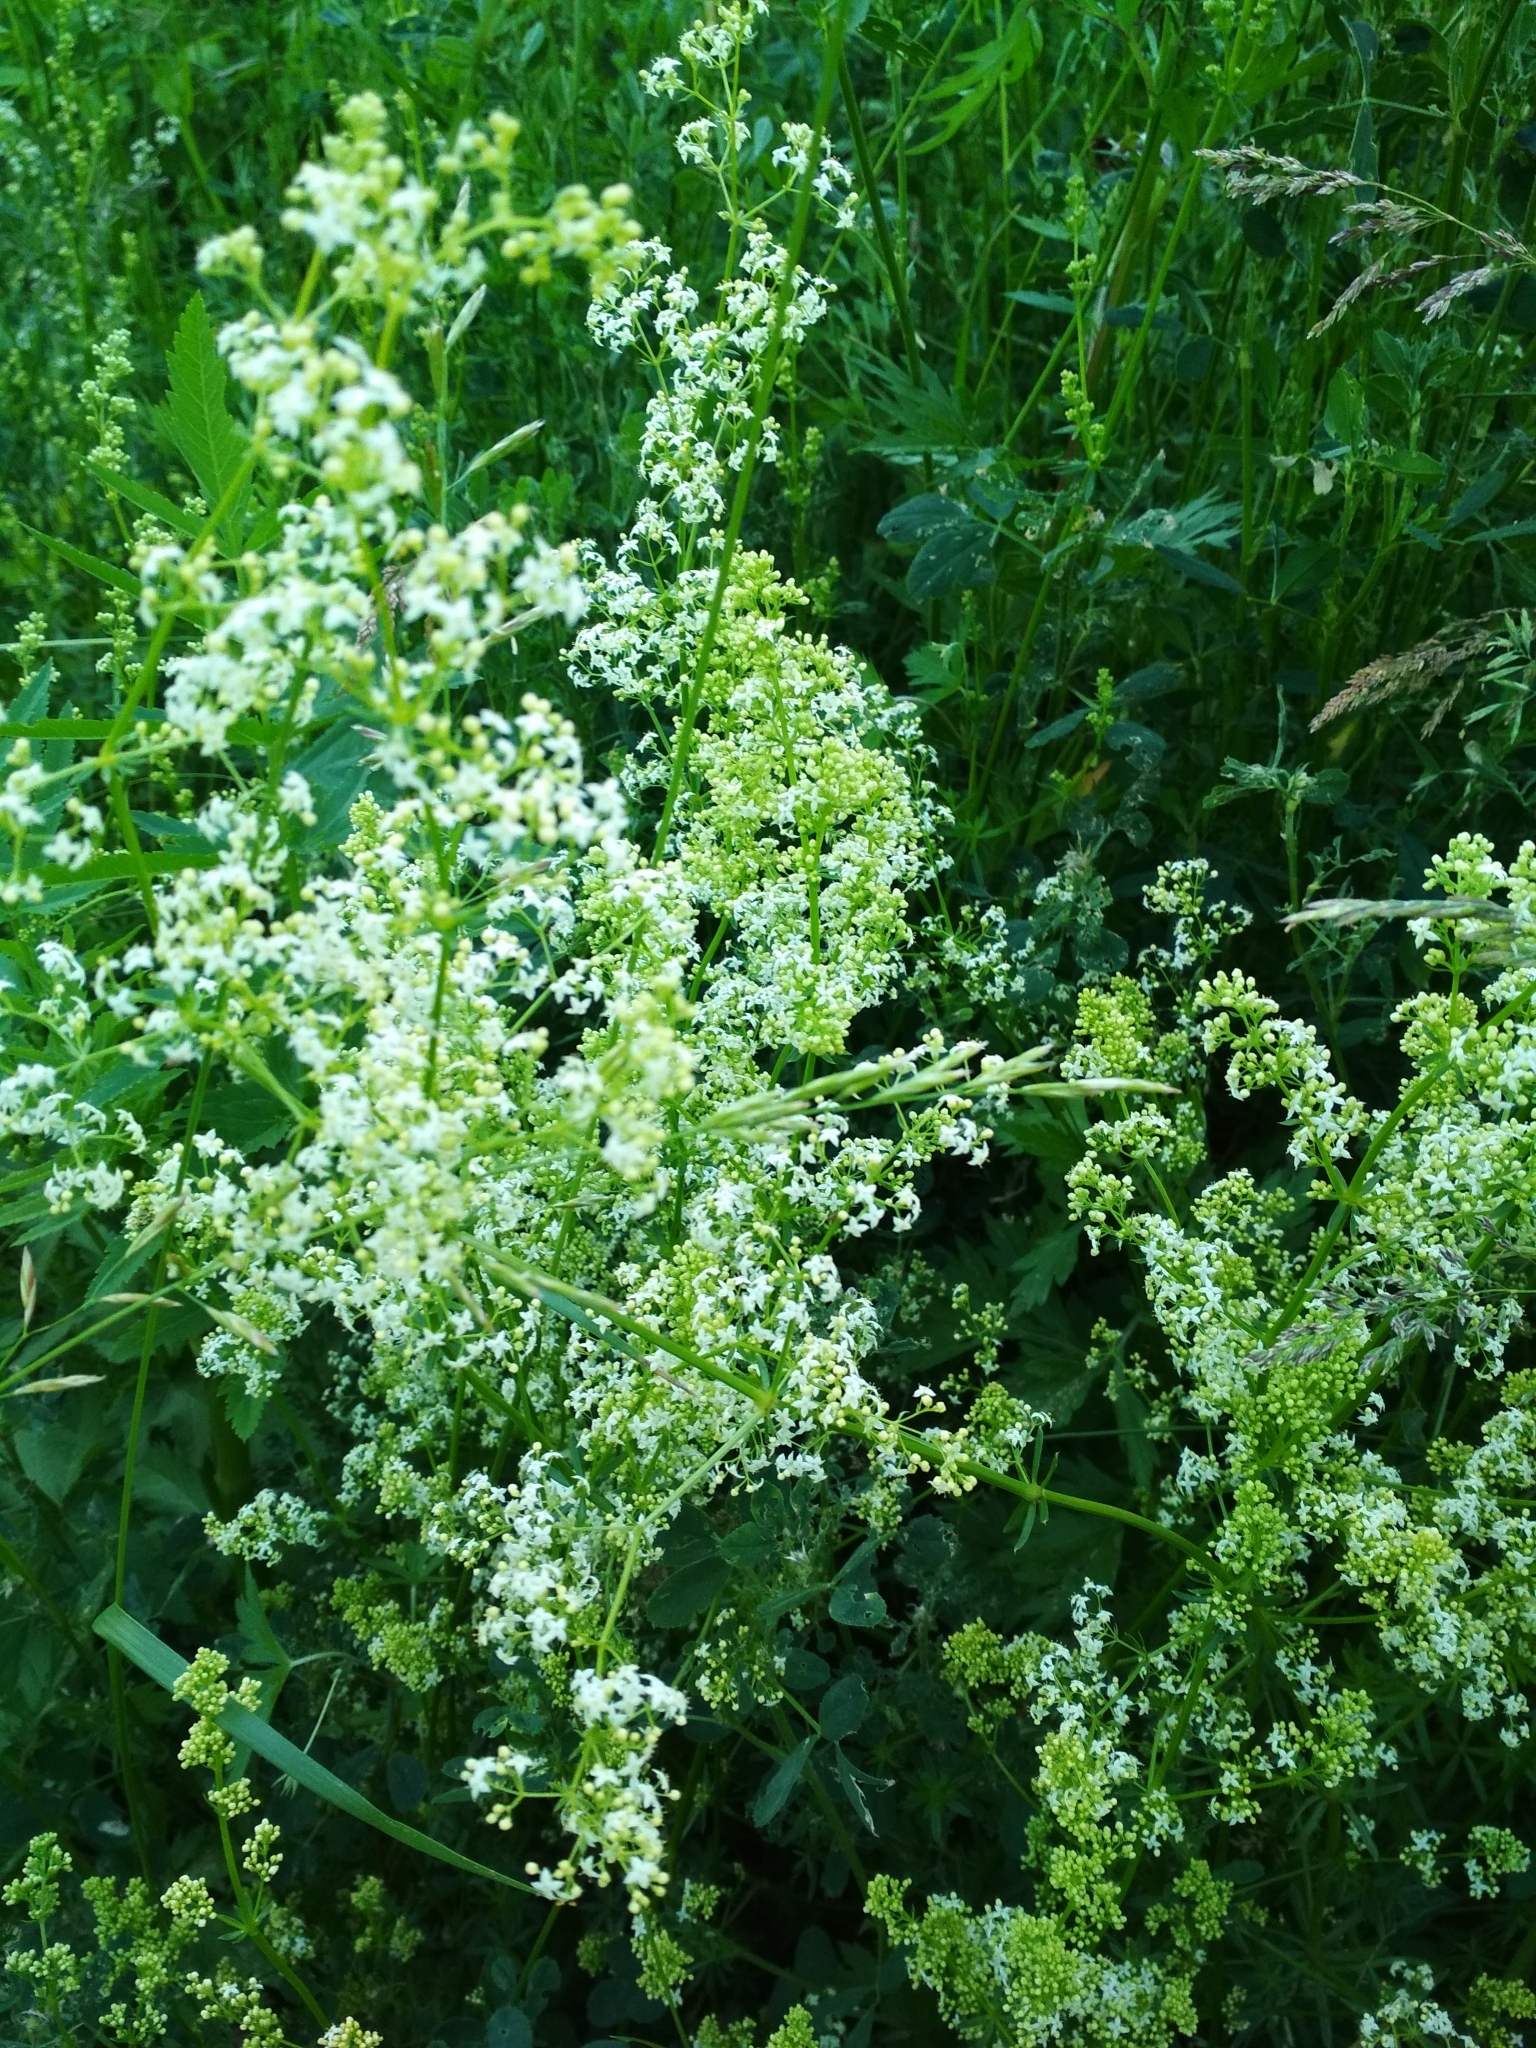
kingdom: Plantae
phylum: Tracheophyta
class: Magnoliopsida
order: Gentianales
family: Rubiaceae
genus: Galium
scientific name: Galium mollugo
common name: Hedge bedstraw
